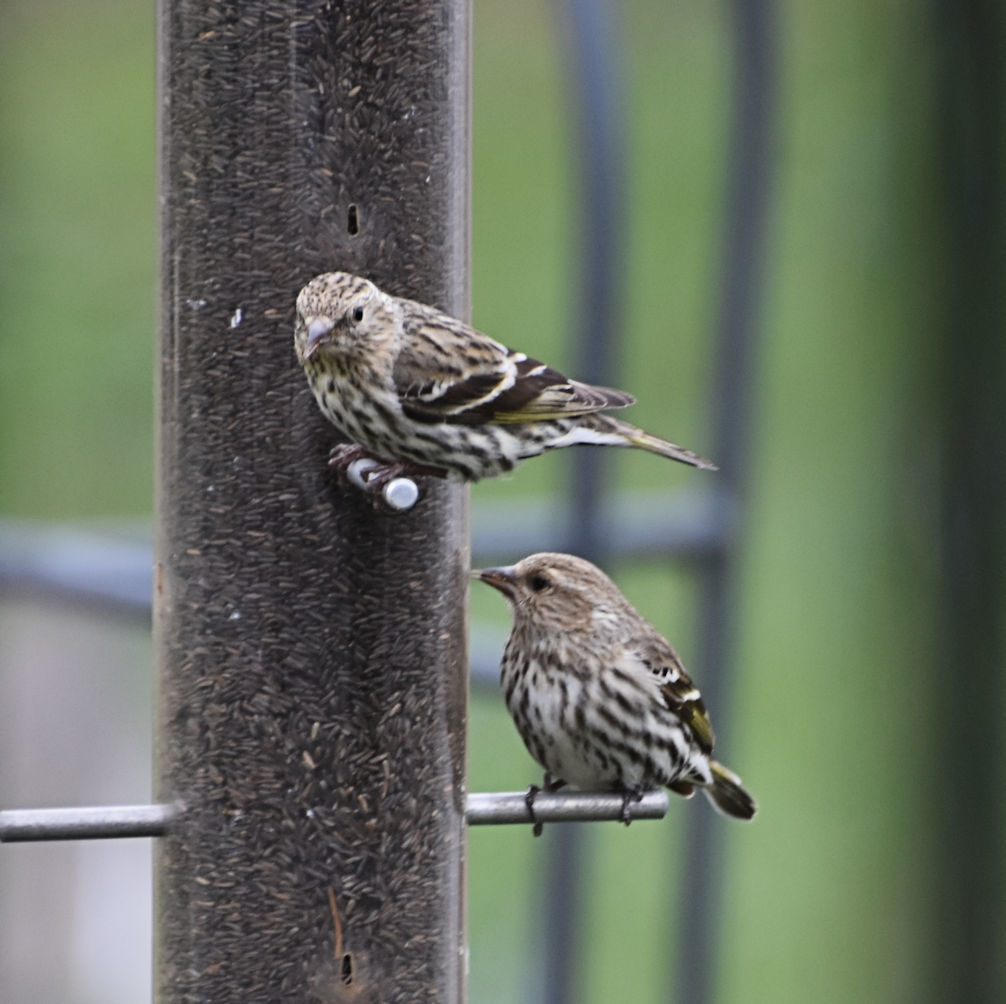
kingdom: Animalia
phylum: Chordata
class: Aves
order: Passeriformes
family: Fringillidae
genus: Spinus
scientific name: Spinus pinus
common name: Pine siskin
